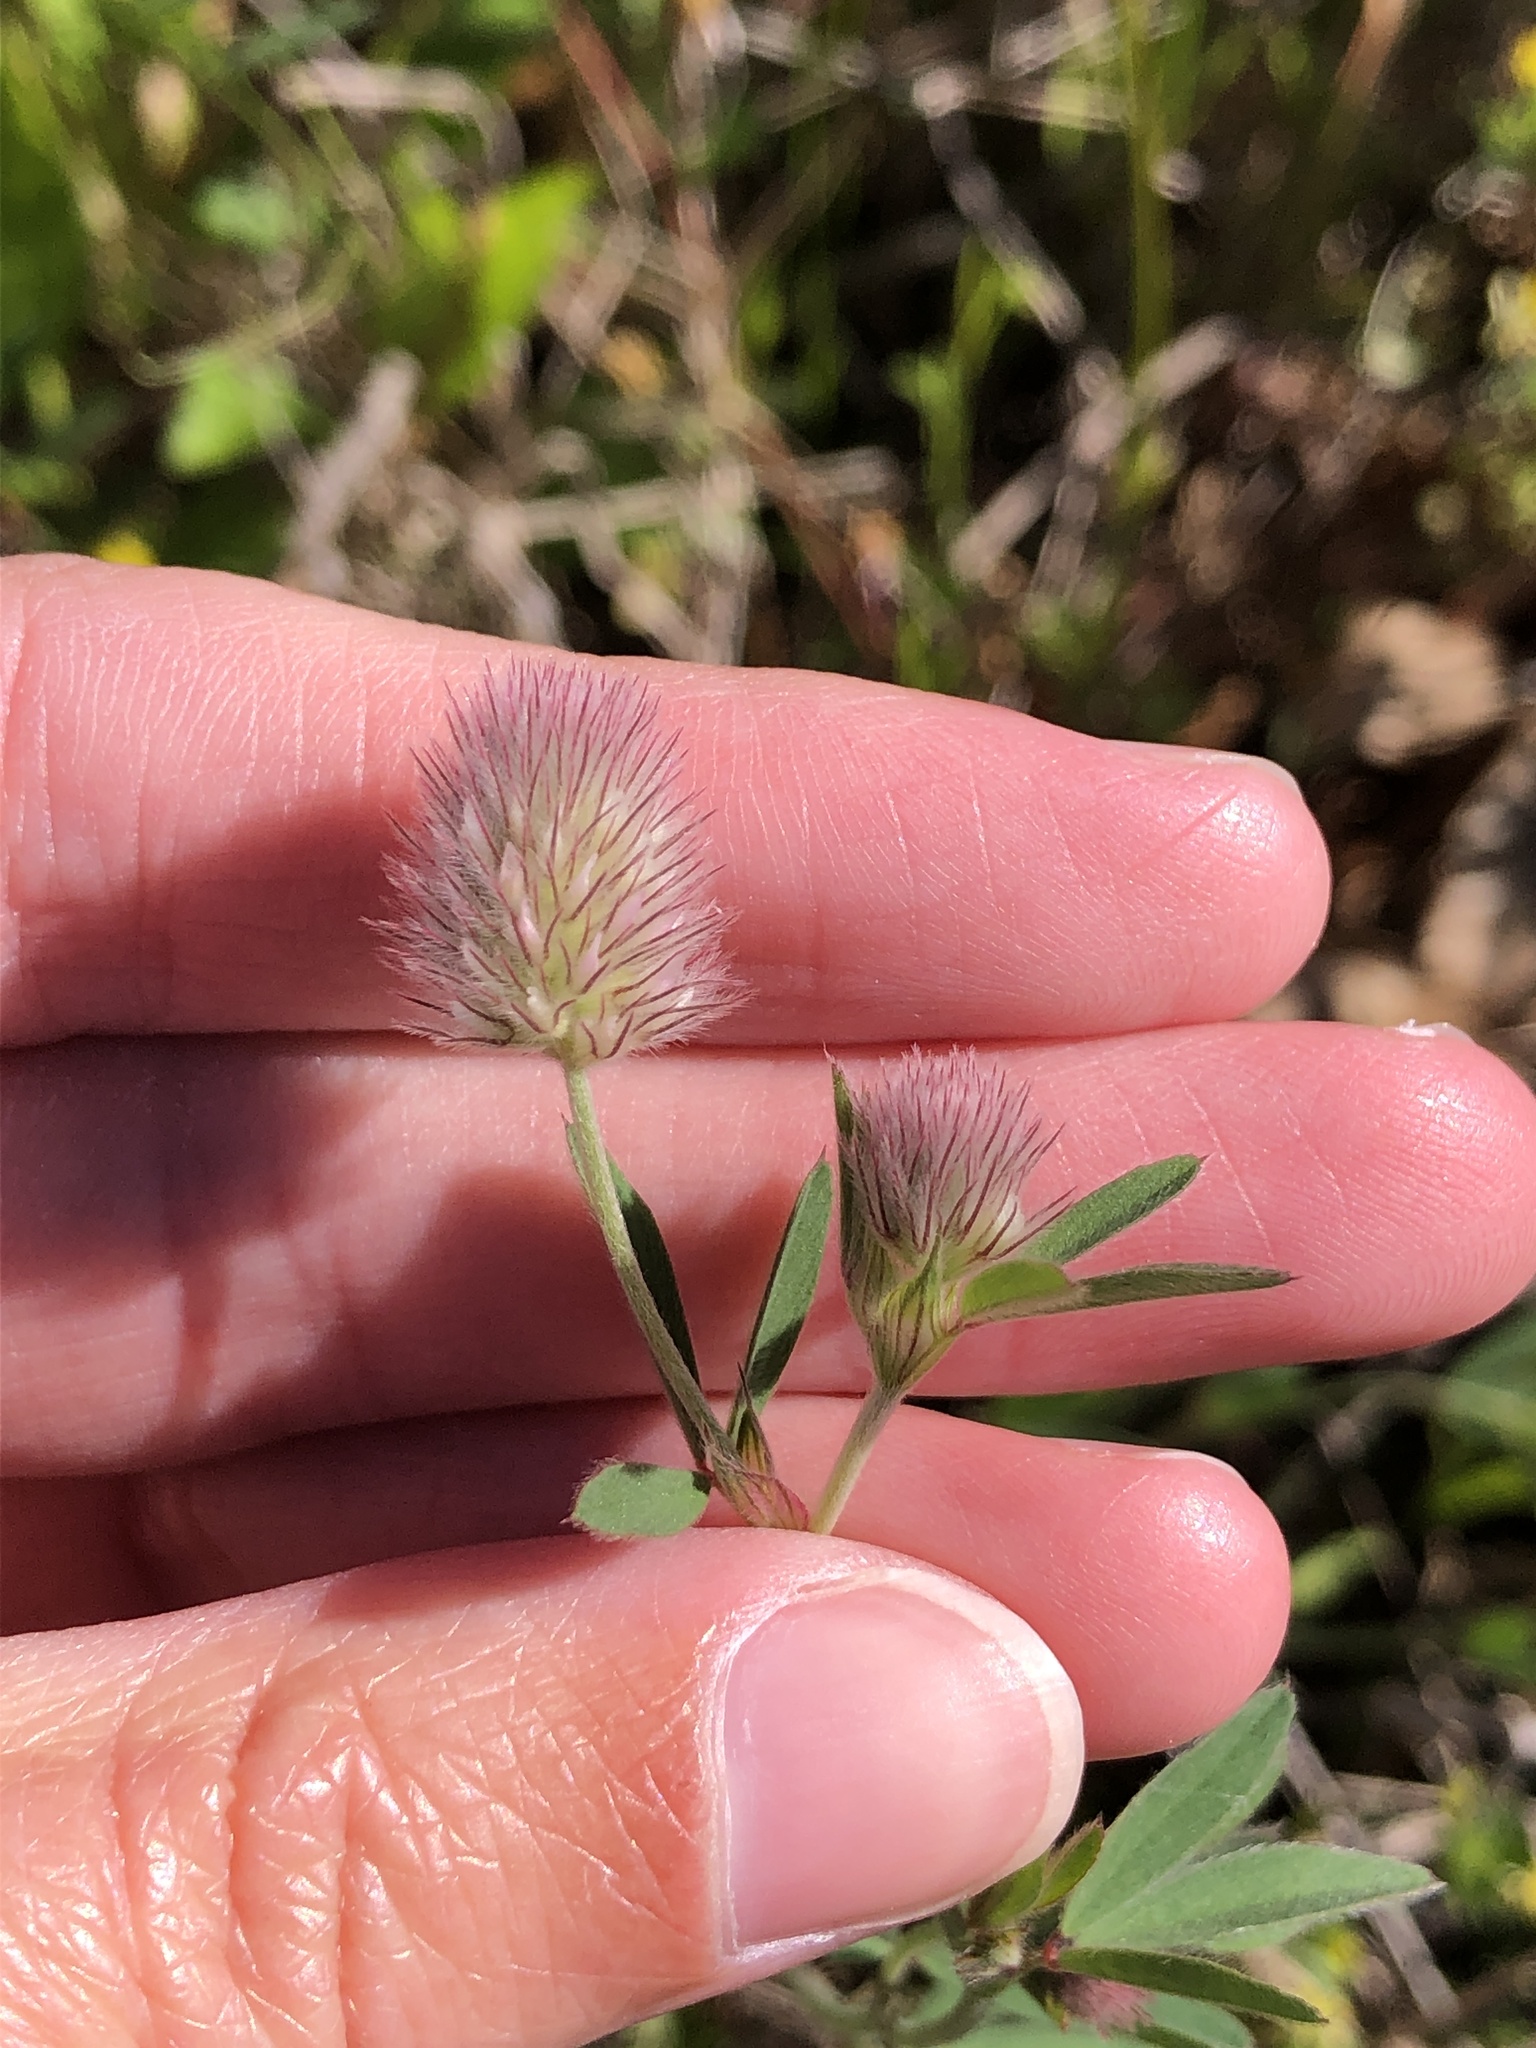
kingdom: Plantae
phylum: Tracheophyta
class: Magnoliopsida
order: Fabales
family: Fabaceae
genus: Trifolium
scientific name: Trifolium arvense
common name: Hare's-foot clover
